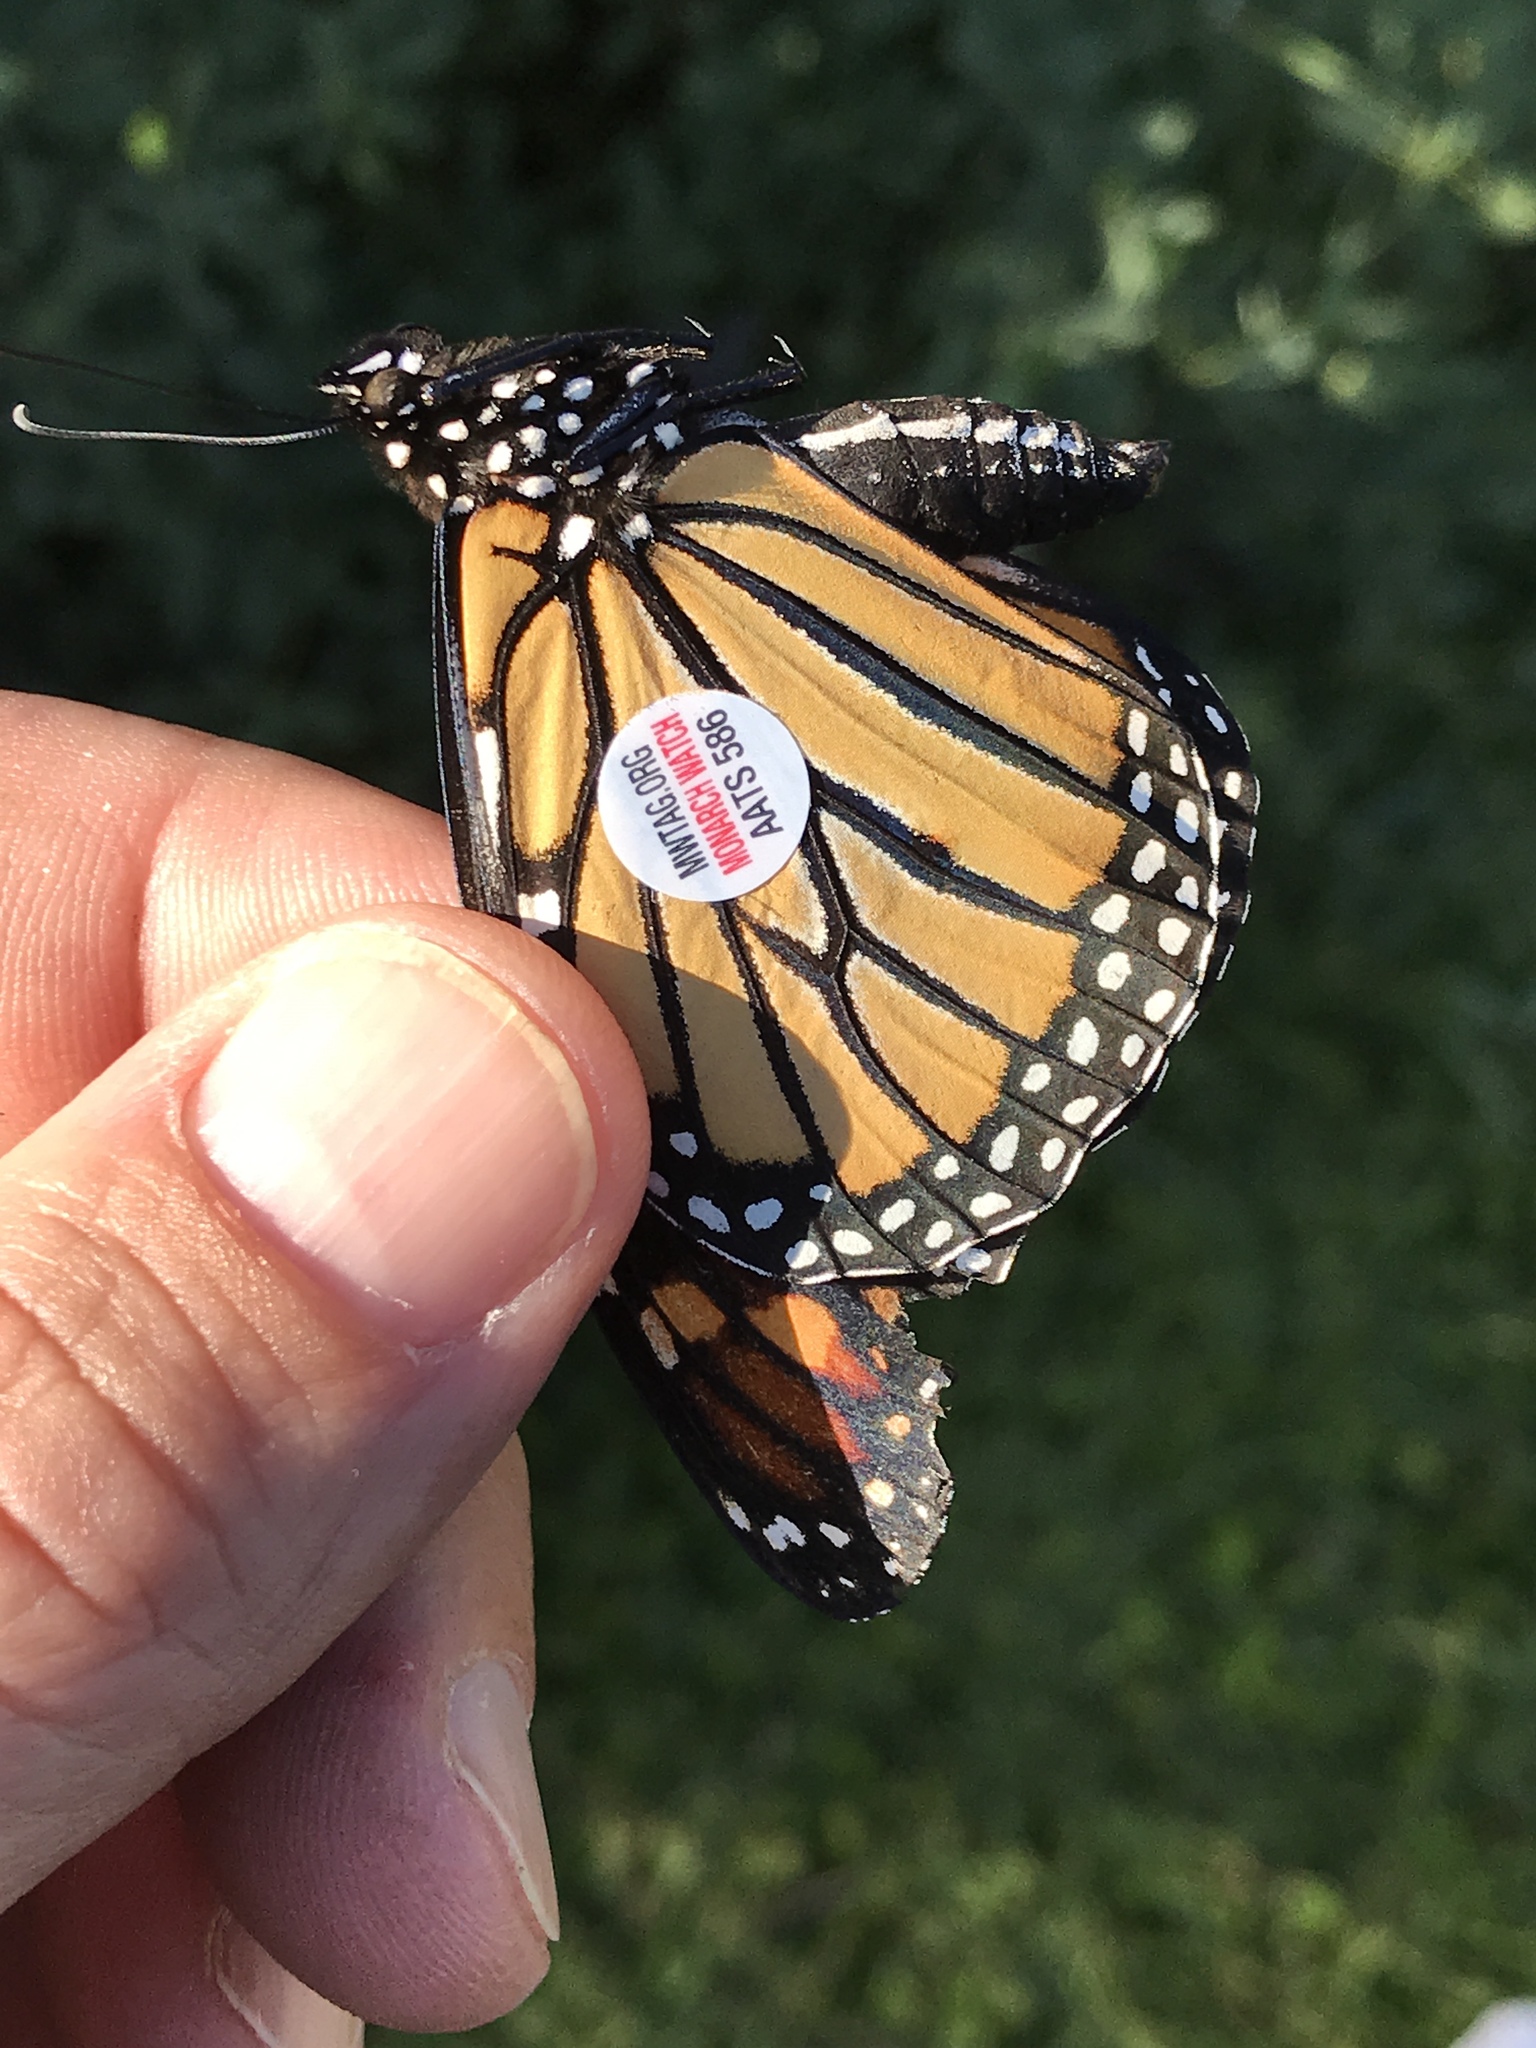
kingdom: Animalia
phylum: Arthropoda
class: Insecta
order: Lepidoptera
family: Nymphalidae
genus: Danaus
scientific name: Danaus plexippus
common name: Monarch
